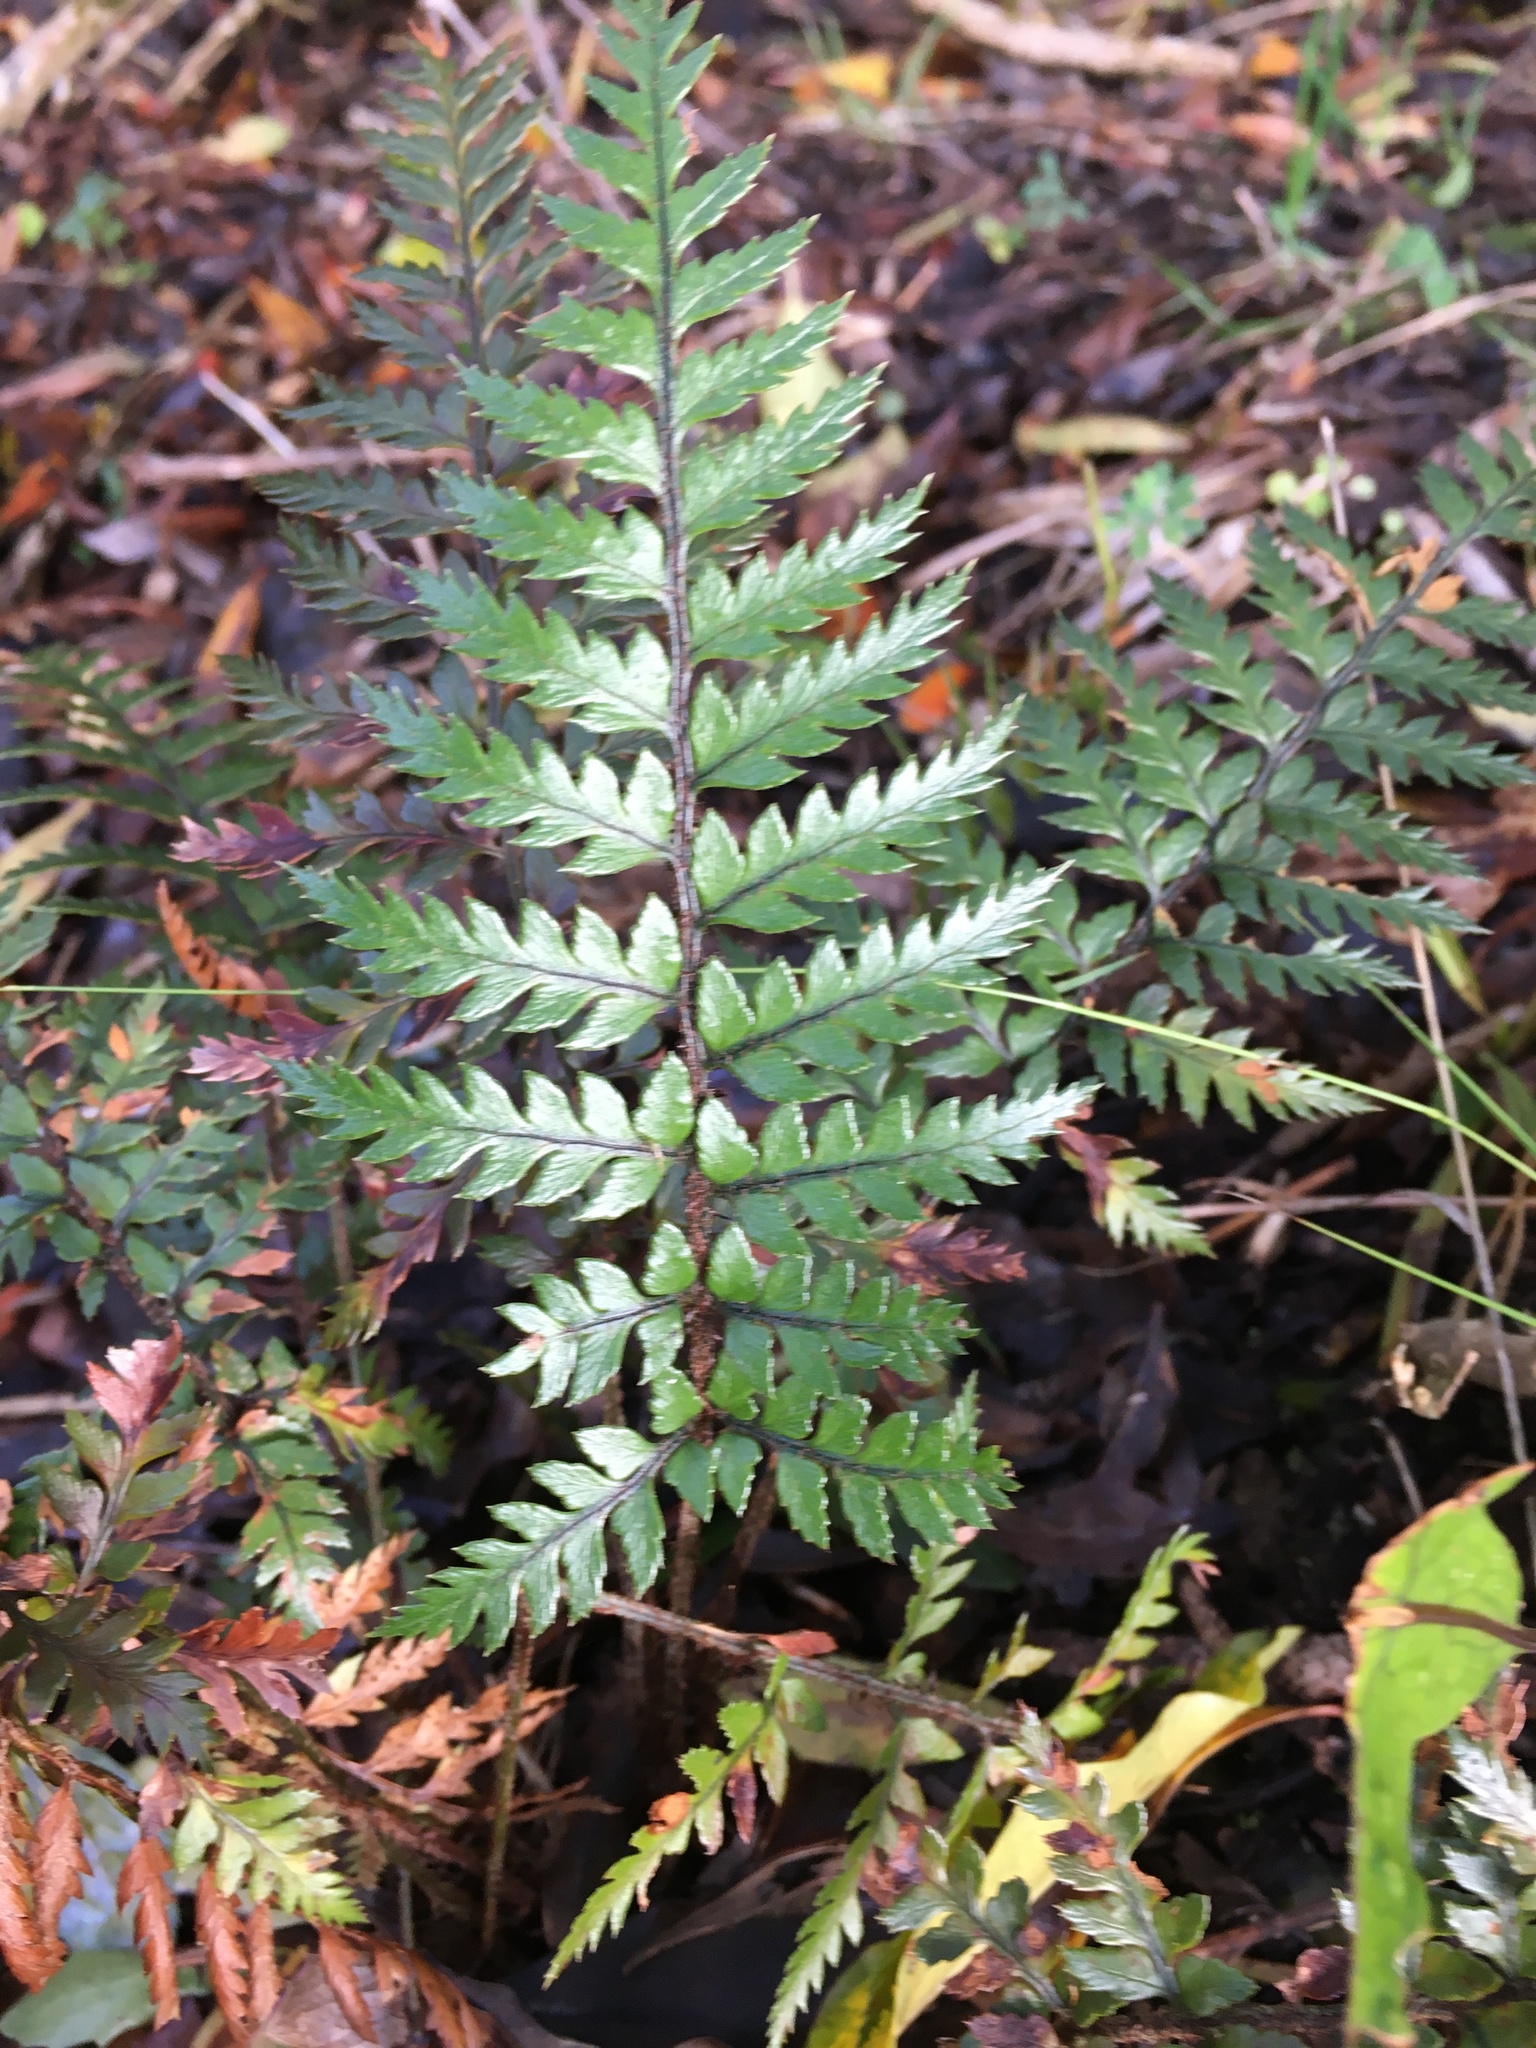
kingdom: Plantae
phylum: Tracheophyta
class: Polypodiopsida
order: Polypodiales
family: Dryopteridaceae
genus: Polystichum
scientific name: Polystichum neozelandicum
